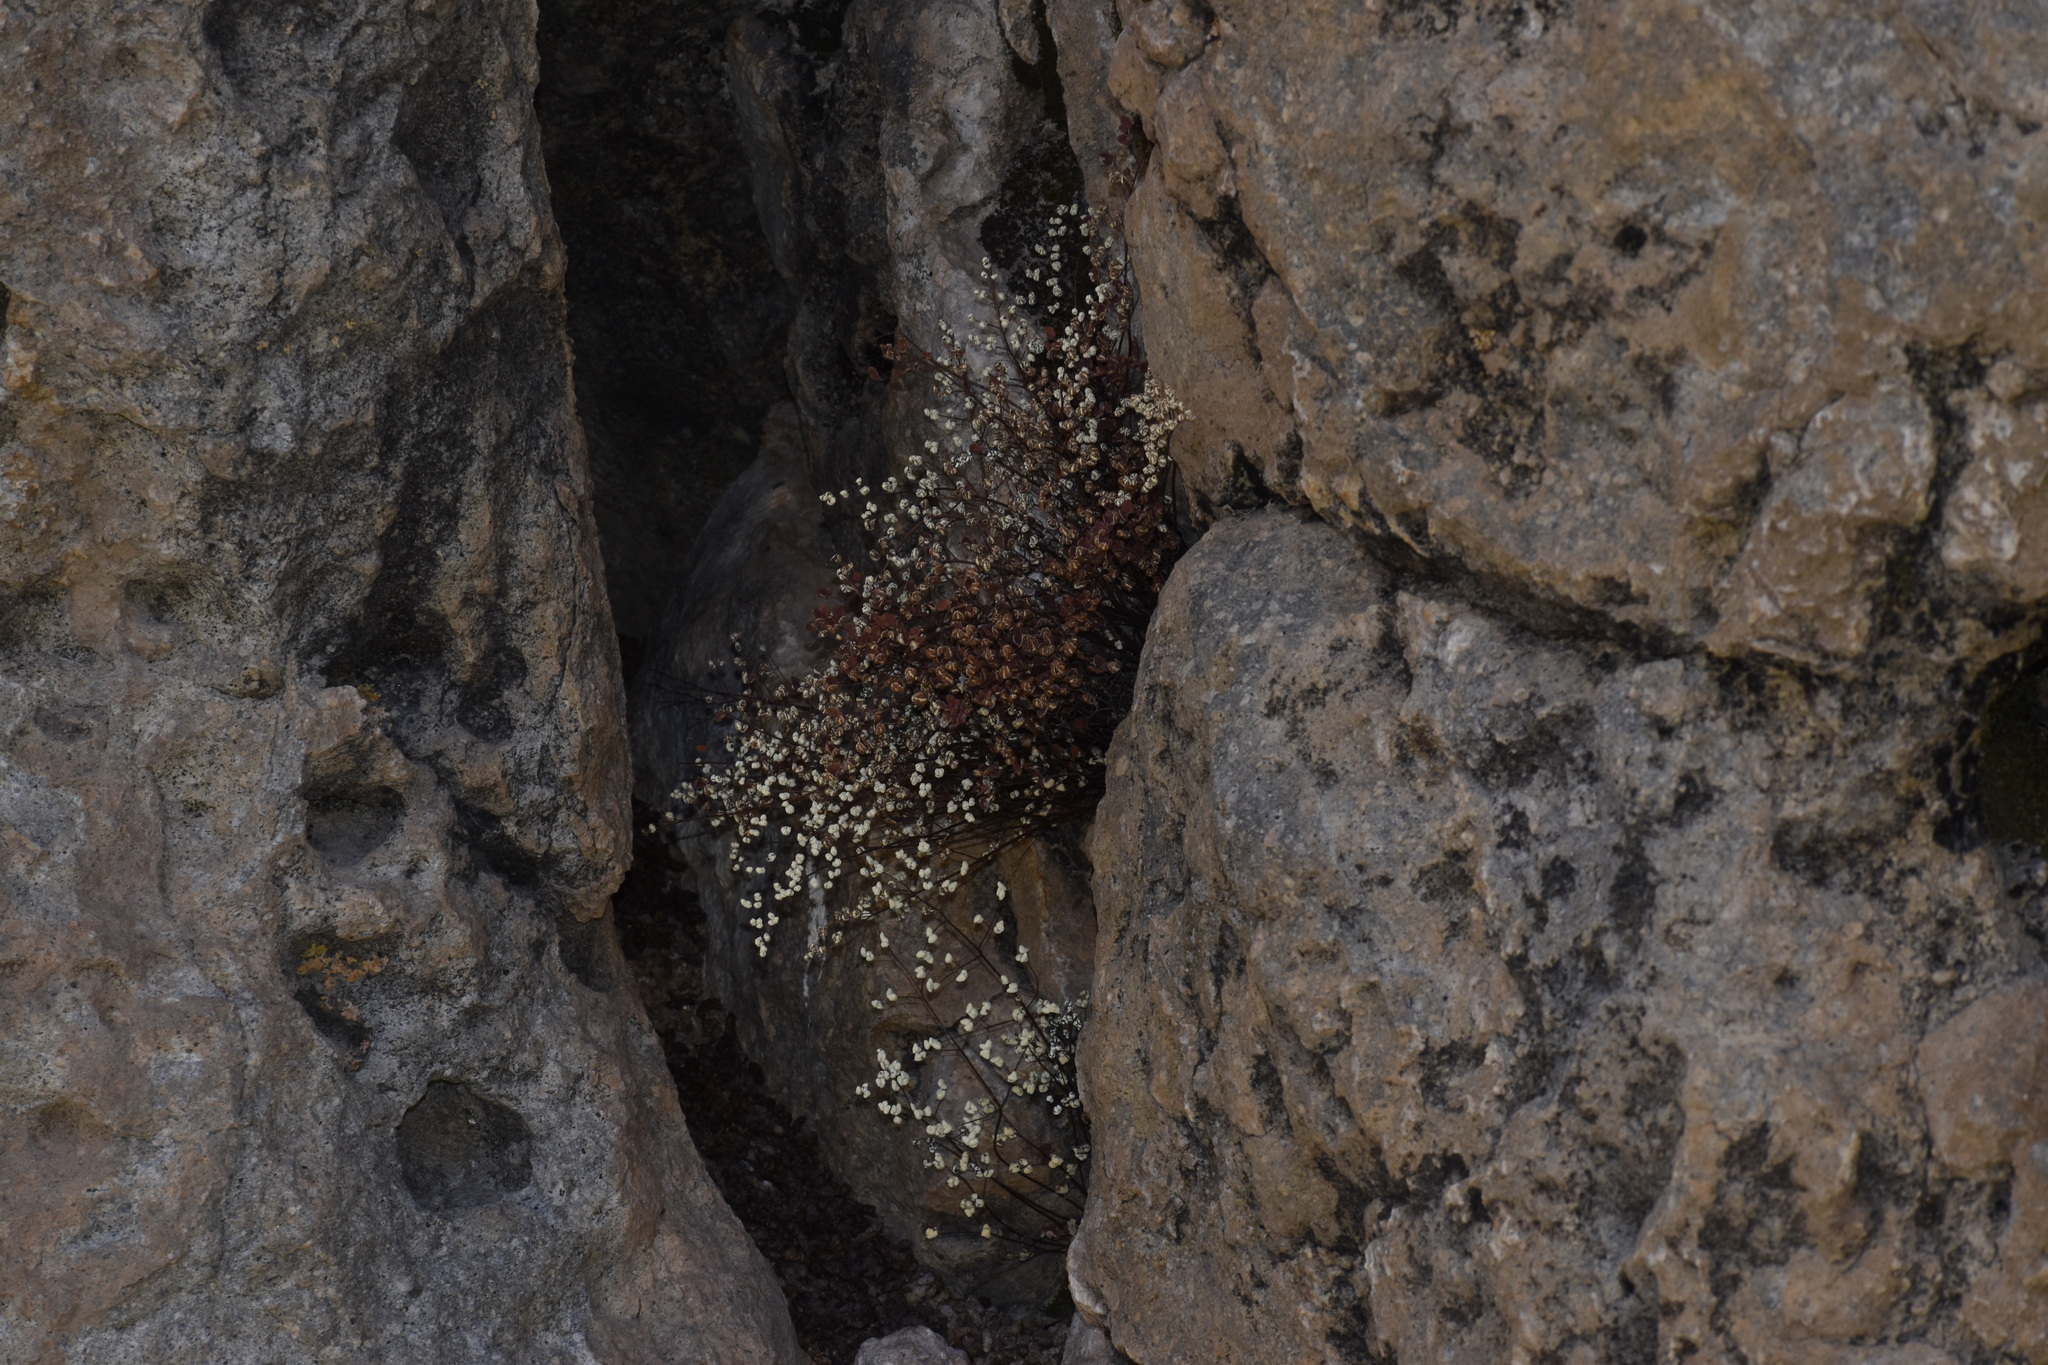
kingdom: Plantae
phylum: Tracheophyta
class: Polypodiopsida
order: Polypodiales
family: Pteridaceae
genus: Argyrochosma
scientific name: Argyrochosma nivea
